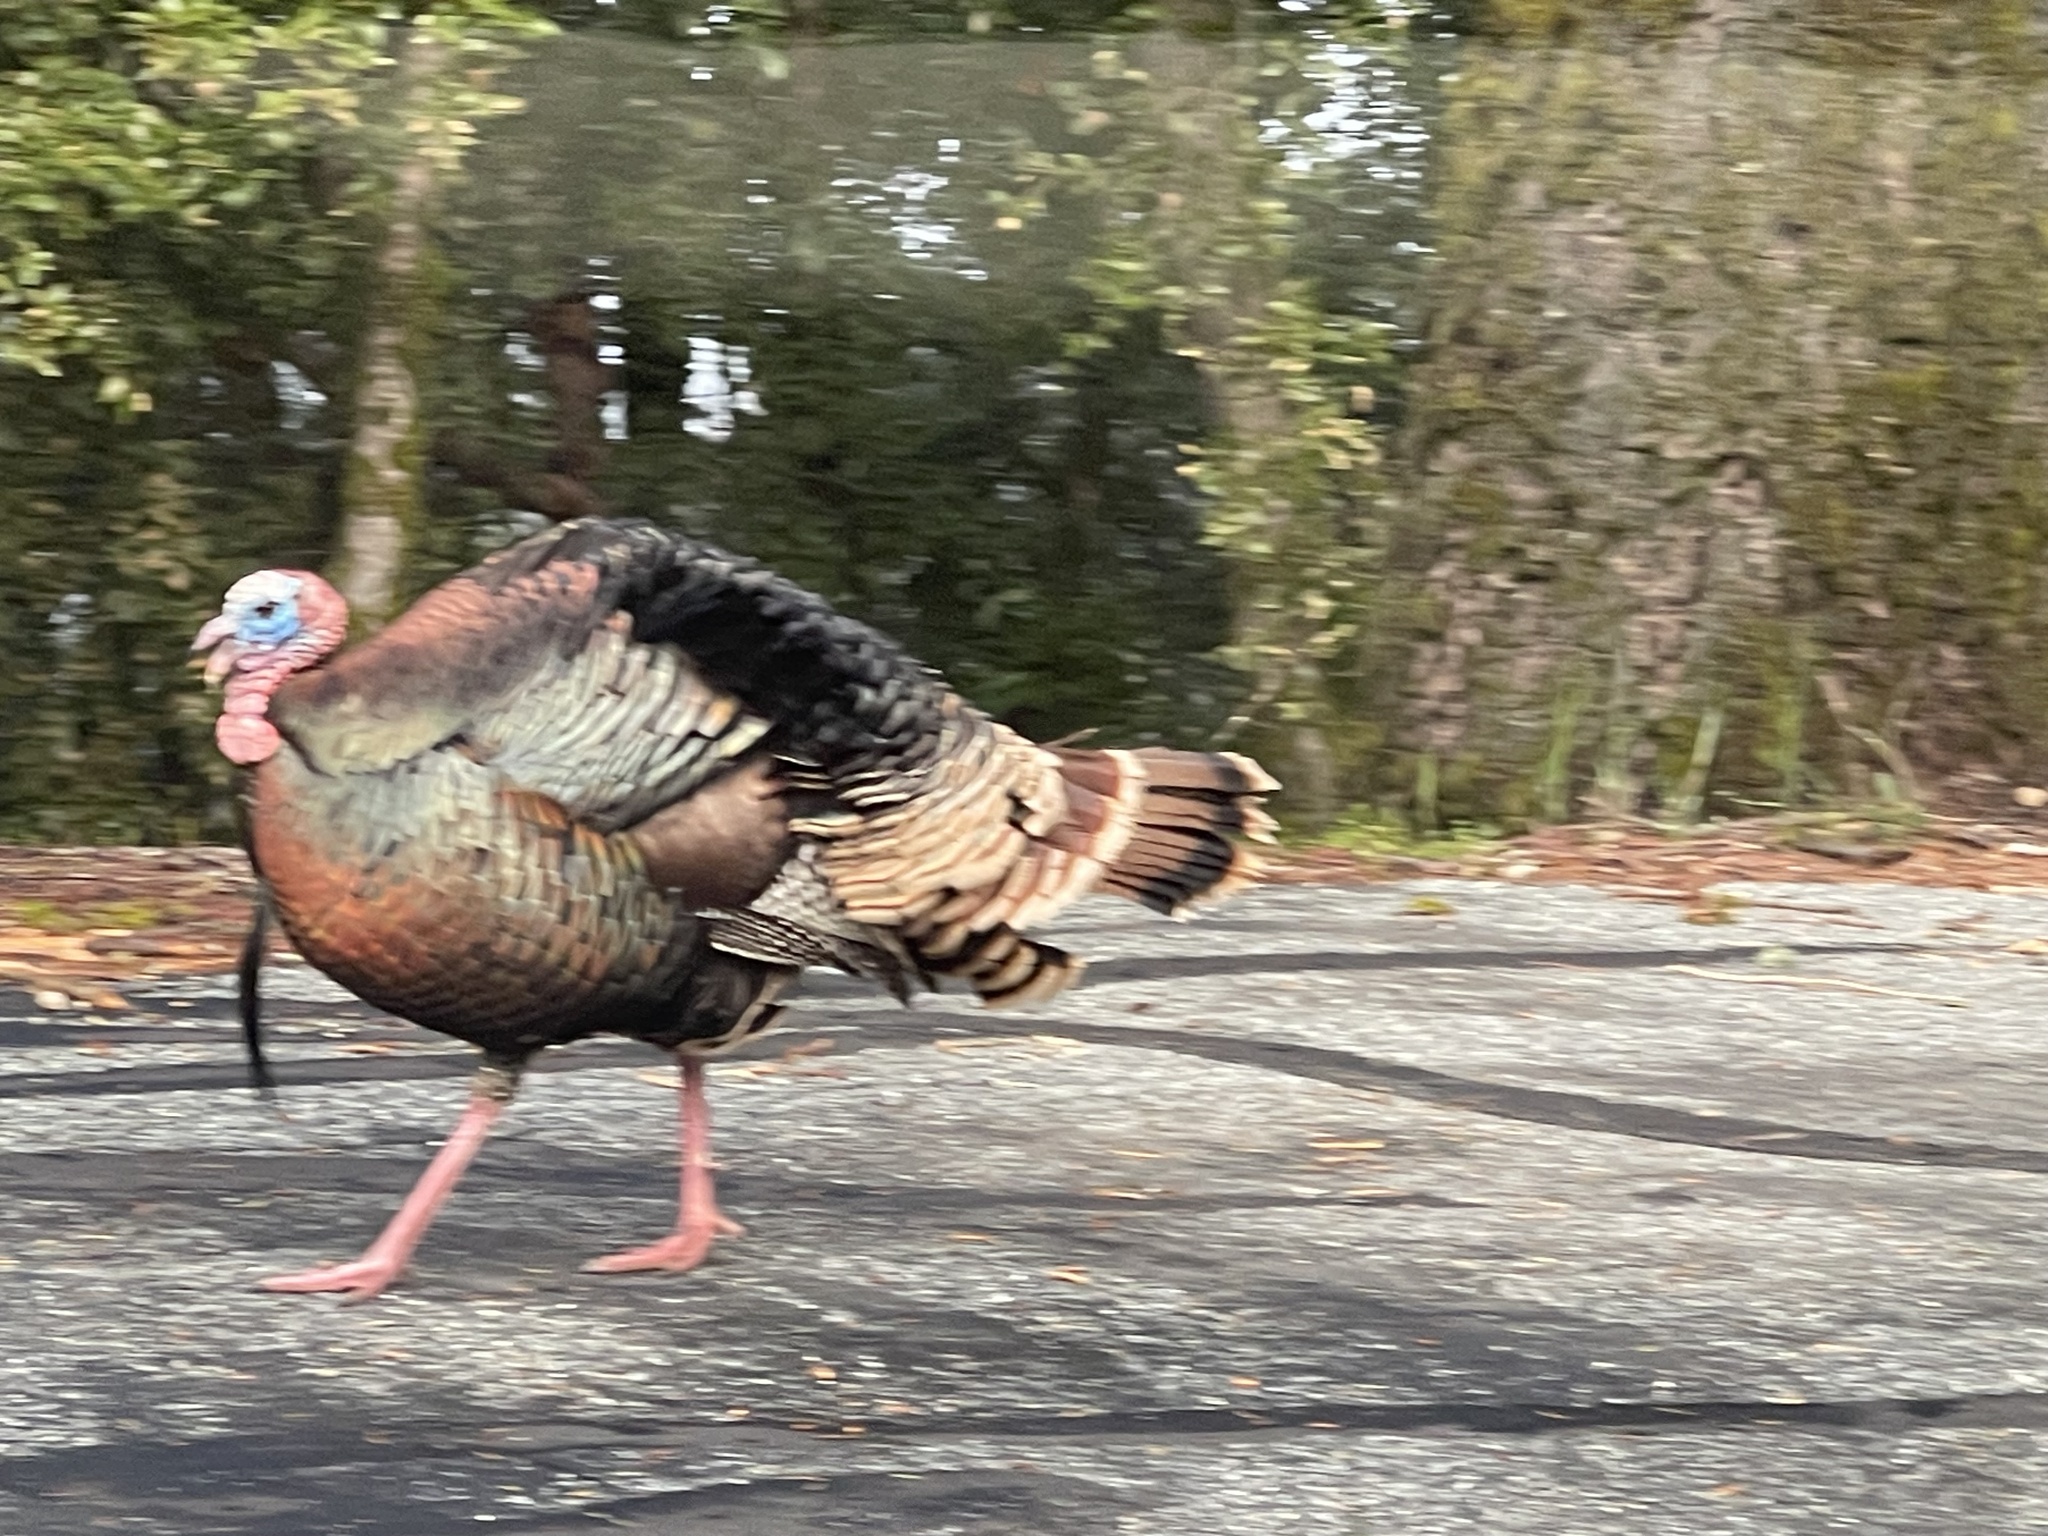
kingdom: Animalia
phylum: Chordata
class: Aves
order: Galliformes
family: Phasianidae
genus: Meleagris
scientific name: Meleagris gallopavo
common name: Wild turkey
